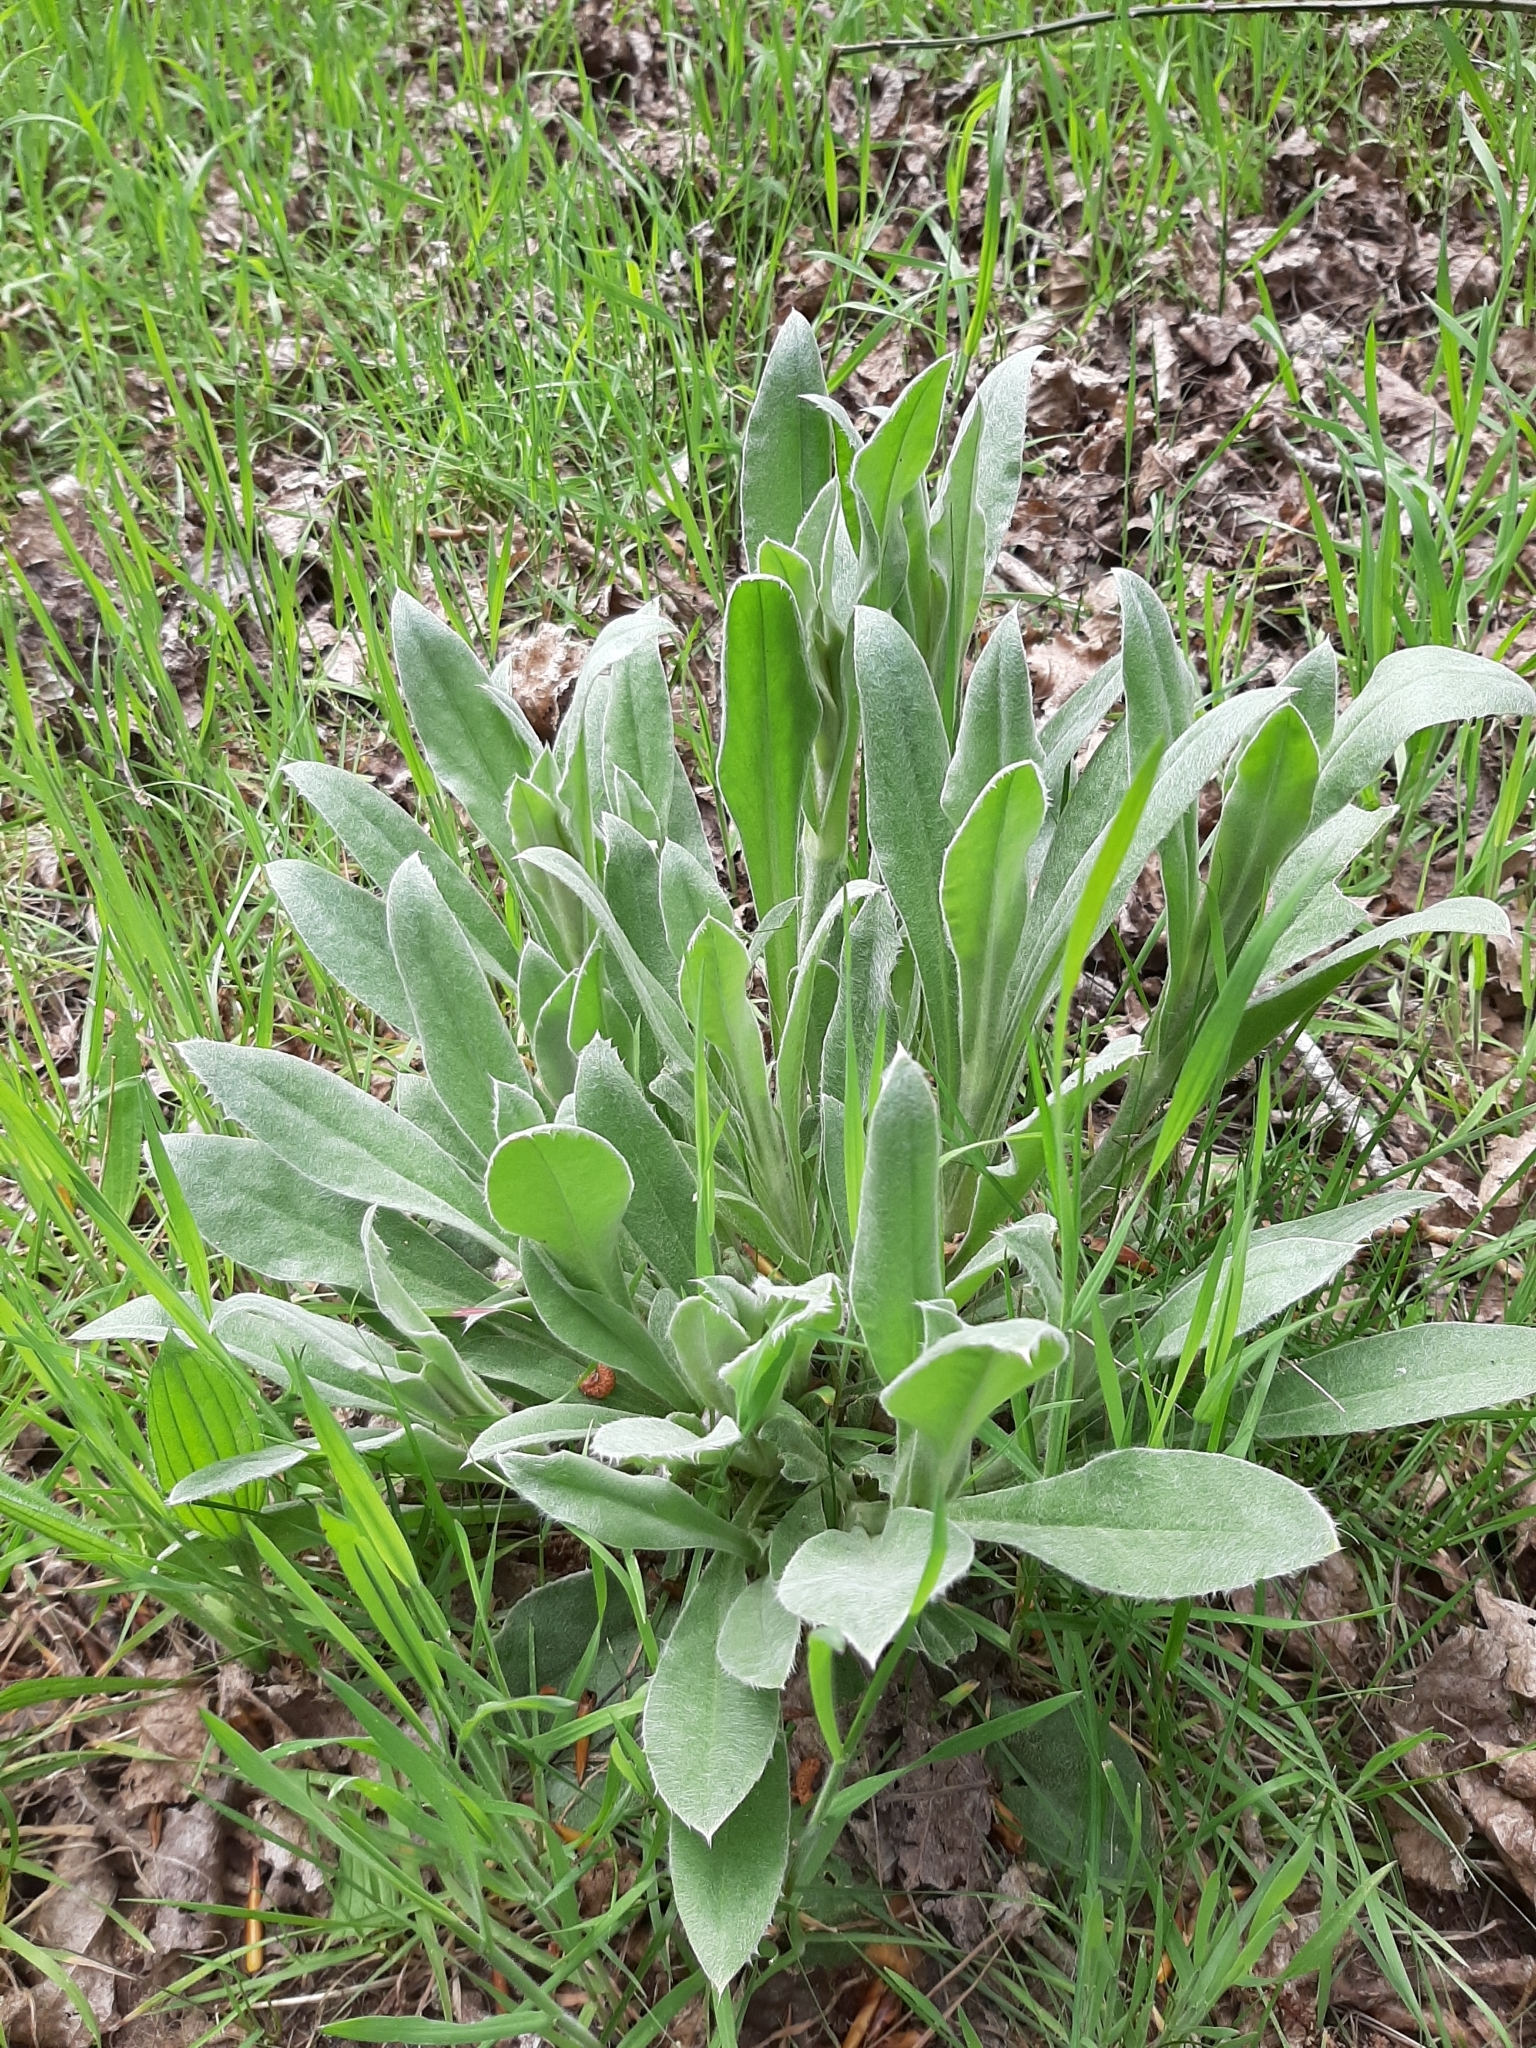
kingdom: Plantae
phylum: Tracheophyta
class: Magnoliopsida
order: Caryophyllales
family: Caryophyllaceae
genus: Silene
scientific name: Silene coronaria
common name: Rose campion
